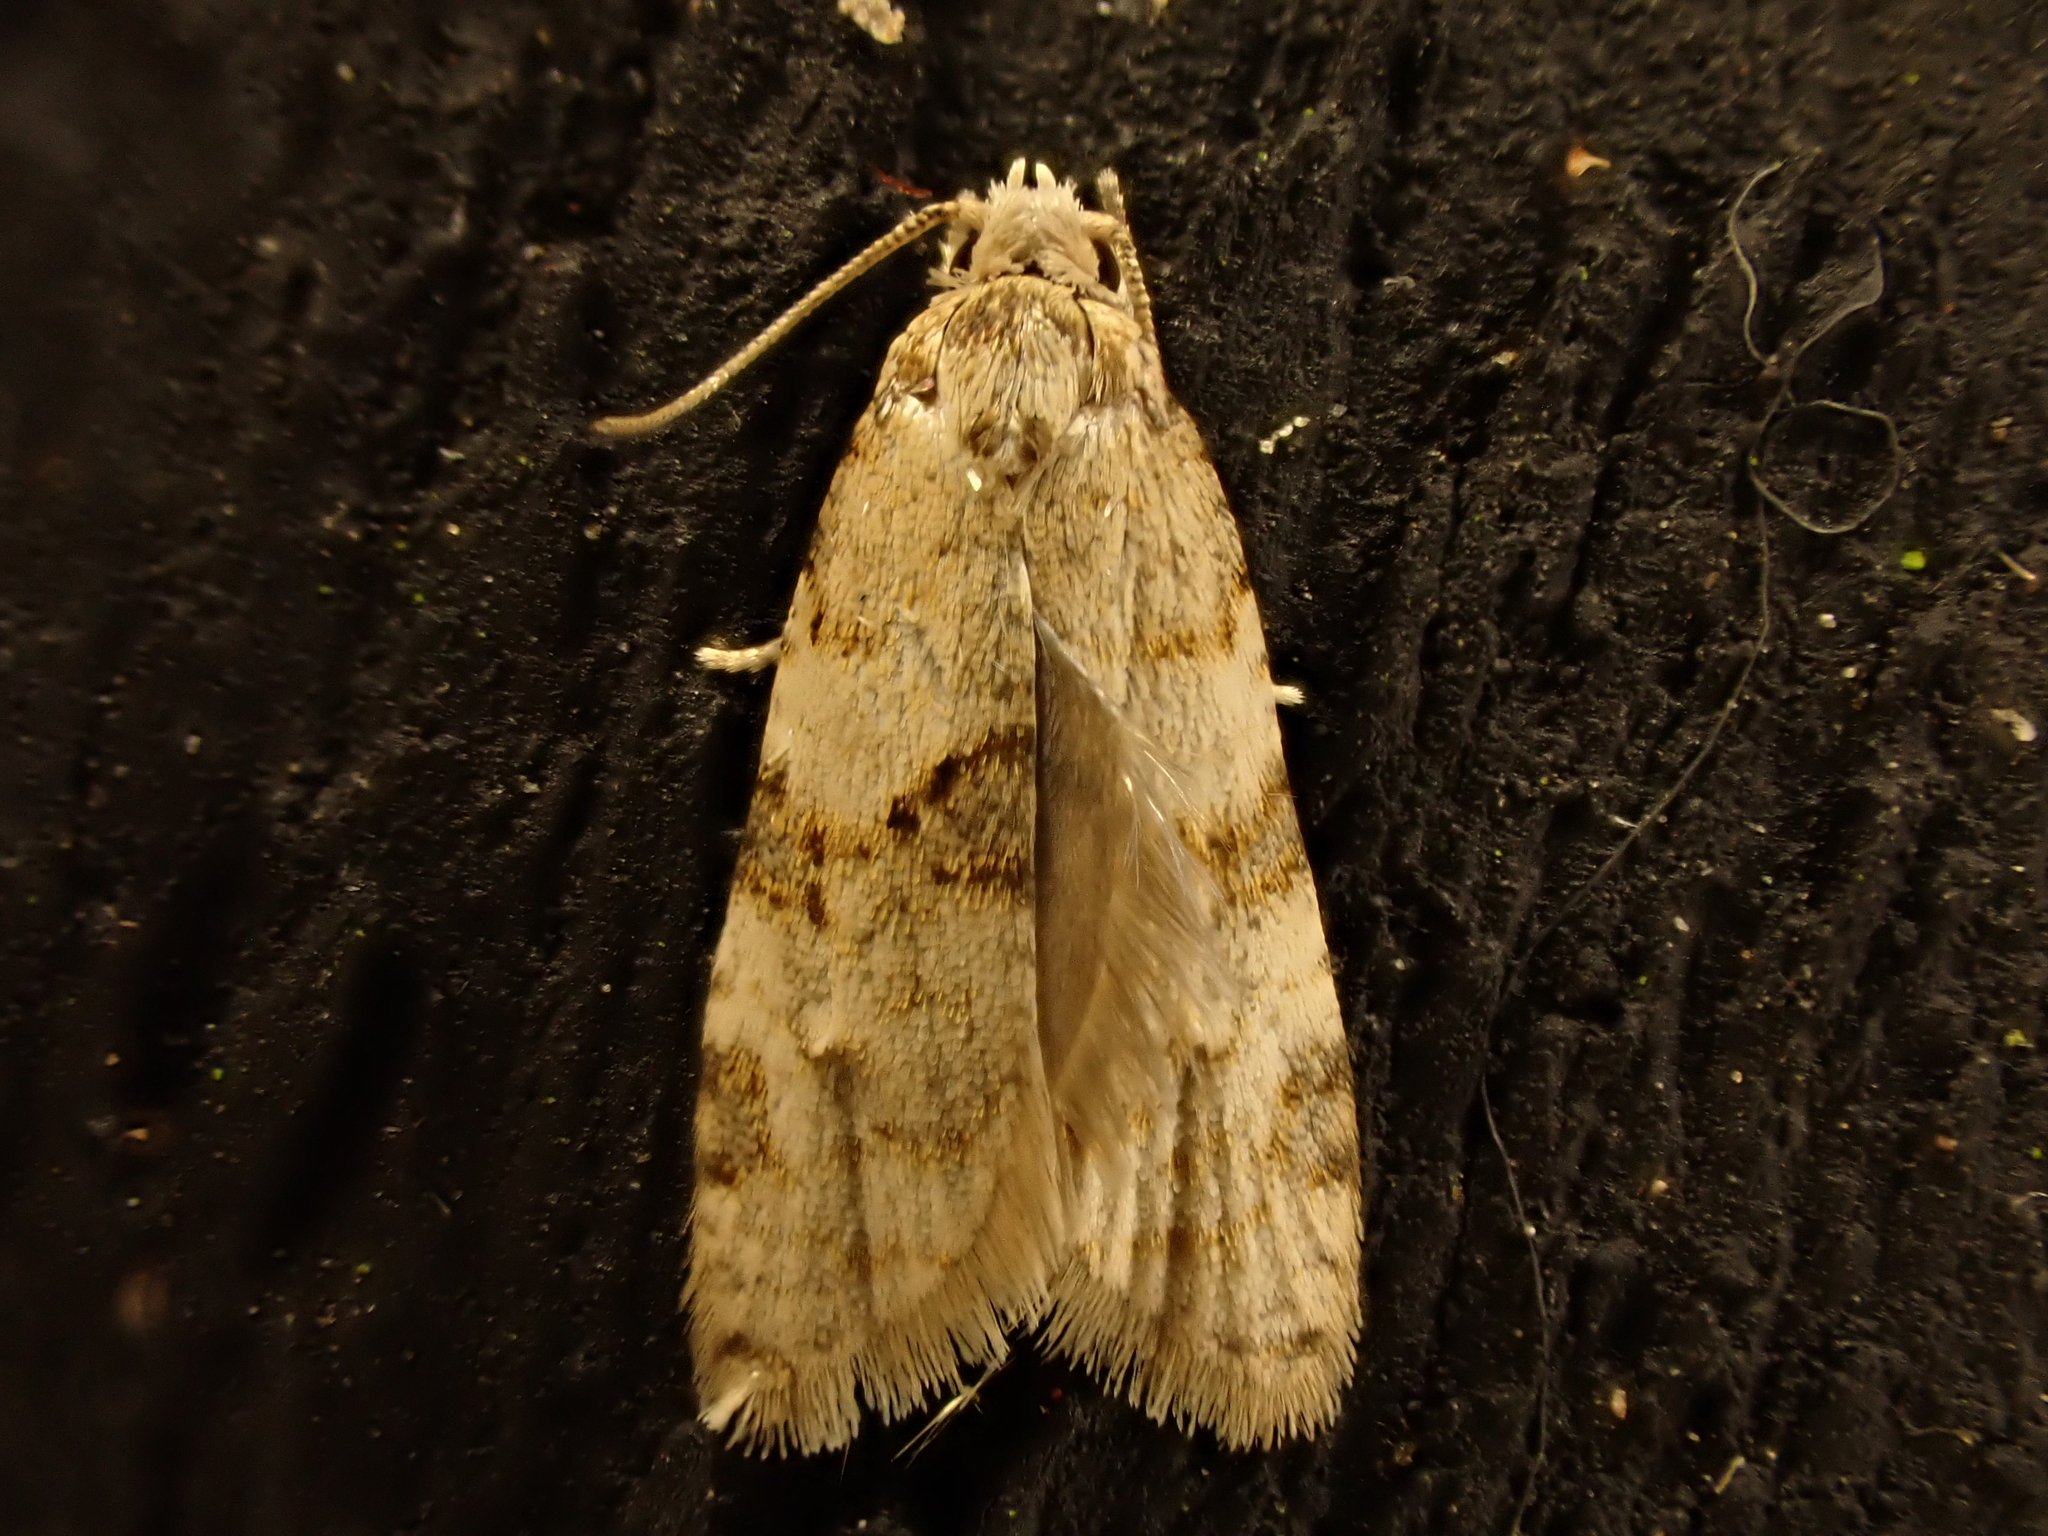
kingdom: Animalia
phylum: Arthropoda
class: Insecta
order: Lepidoptera
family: Tortricidae
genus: Dipterina
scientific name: Dipterina imbriferana
